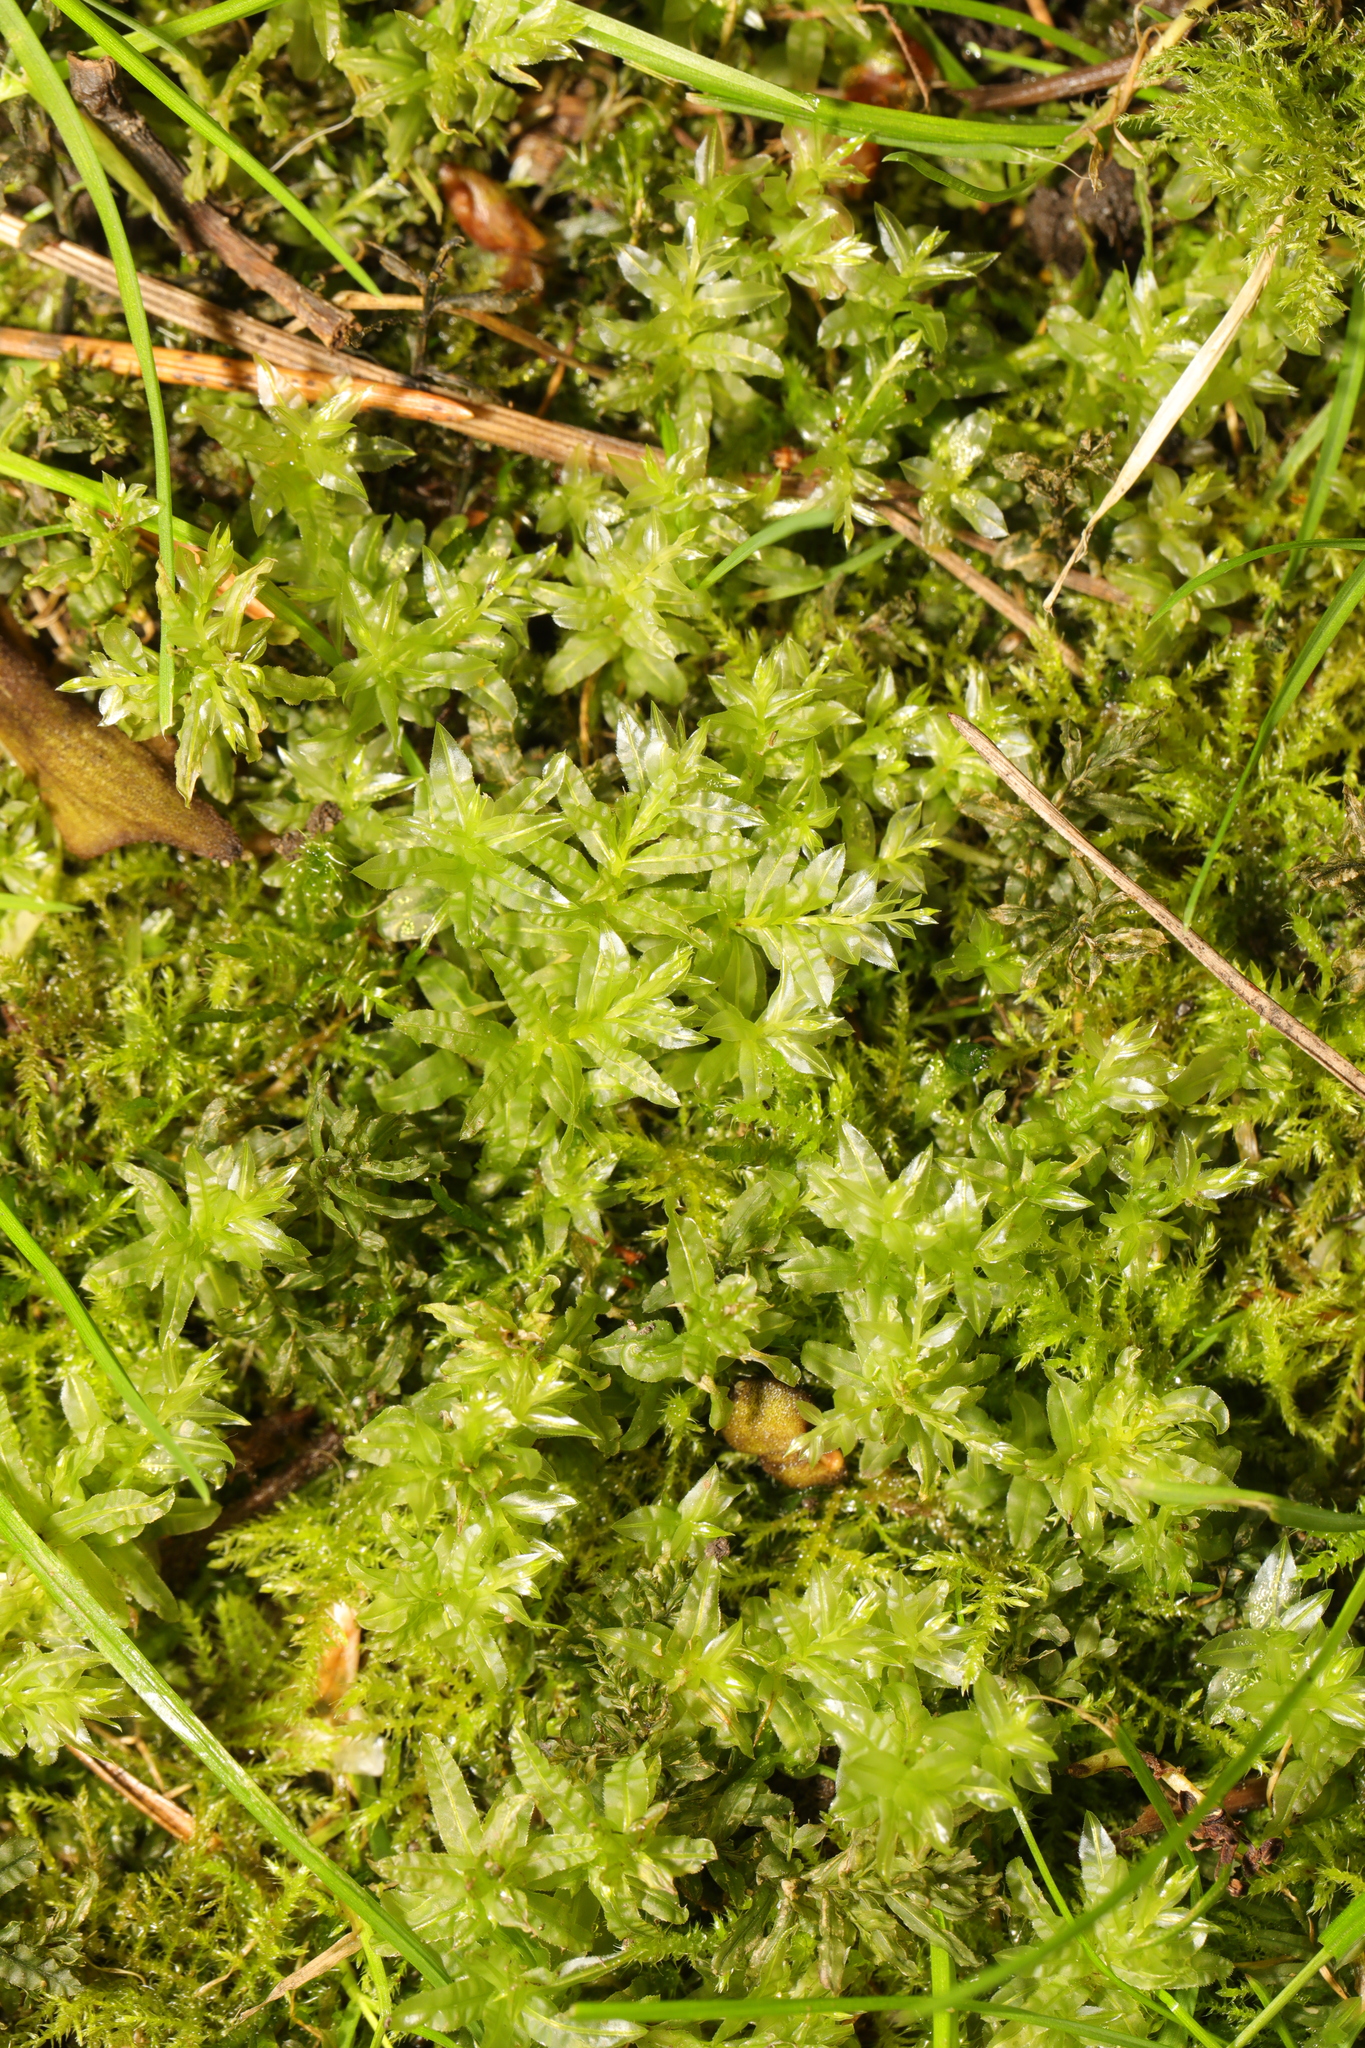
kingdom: Plantae
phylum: Bryophyta
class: Bryopsida
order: Bryales
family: Mniaceae
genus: Plagiomnium
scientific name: Plagiomnium undulatum
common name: Hart's-tongue thyme-moss
